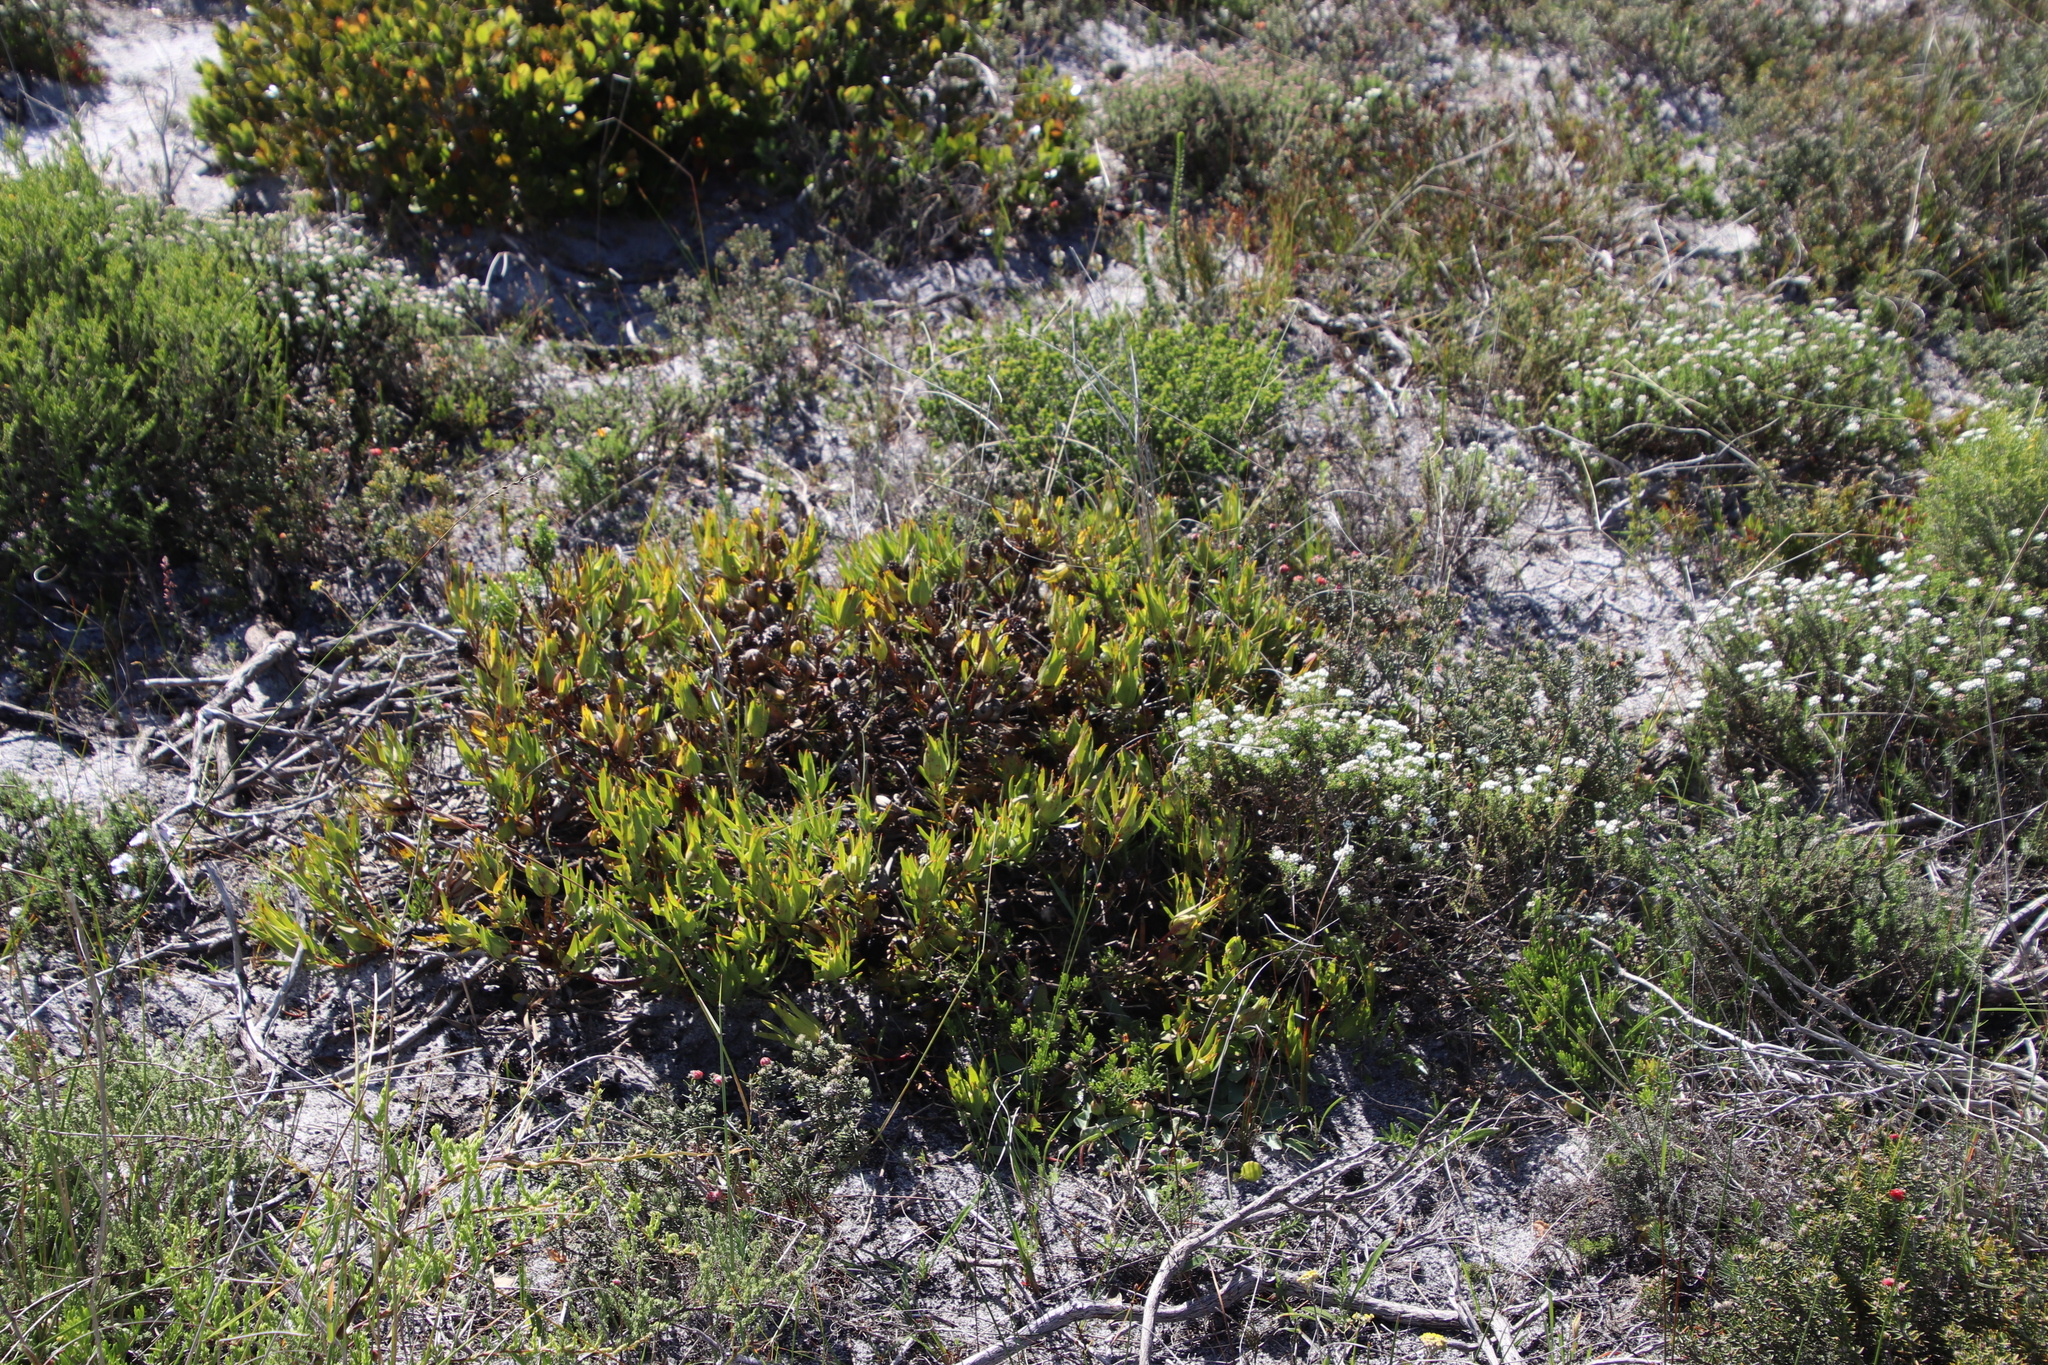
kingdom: Plantae
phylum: Tracheophyta
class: Magnoliopsida
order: Proteales
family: Proteaceae
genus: Leucadendron
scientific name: Leucadendron salignum
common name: Common sunshine conebush
